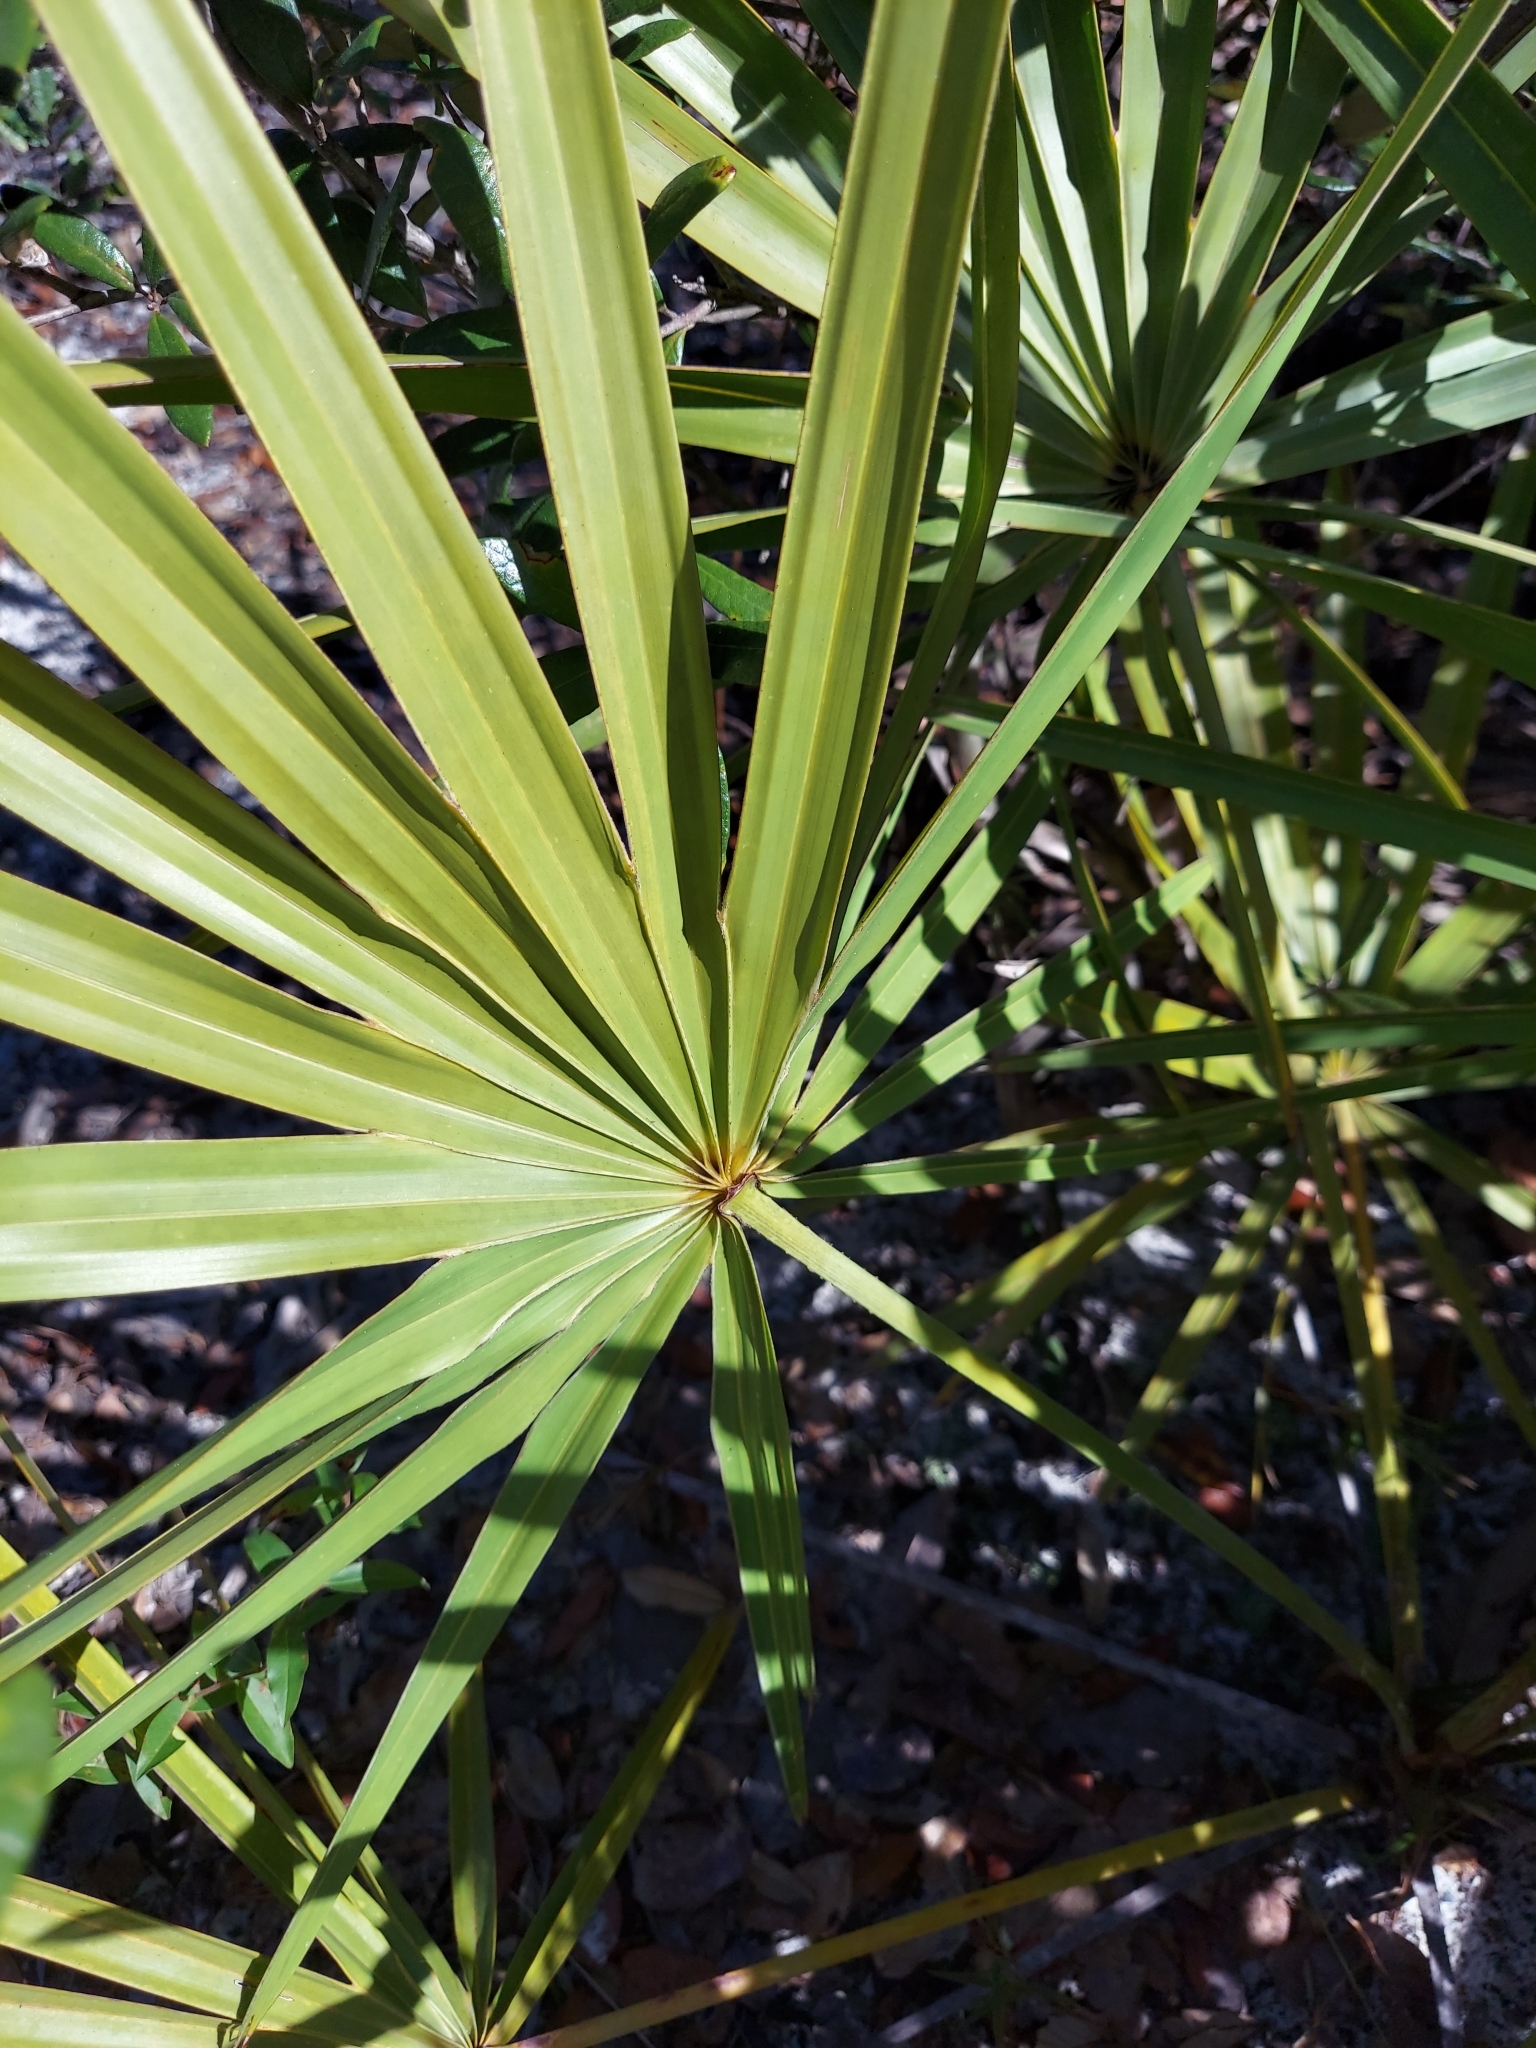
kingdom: Plantae
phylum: Tracheophyta
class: Liliopsida
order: Arecales
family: Arecaceae
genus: Serenoa
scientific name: Serenoa repens
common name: Saw-palmetto
